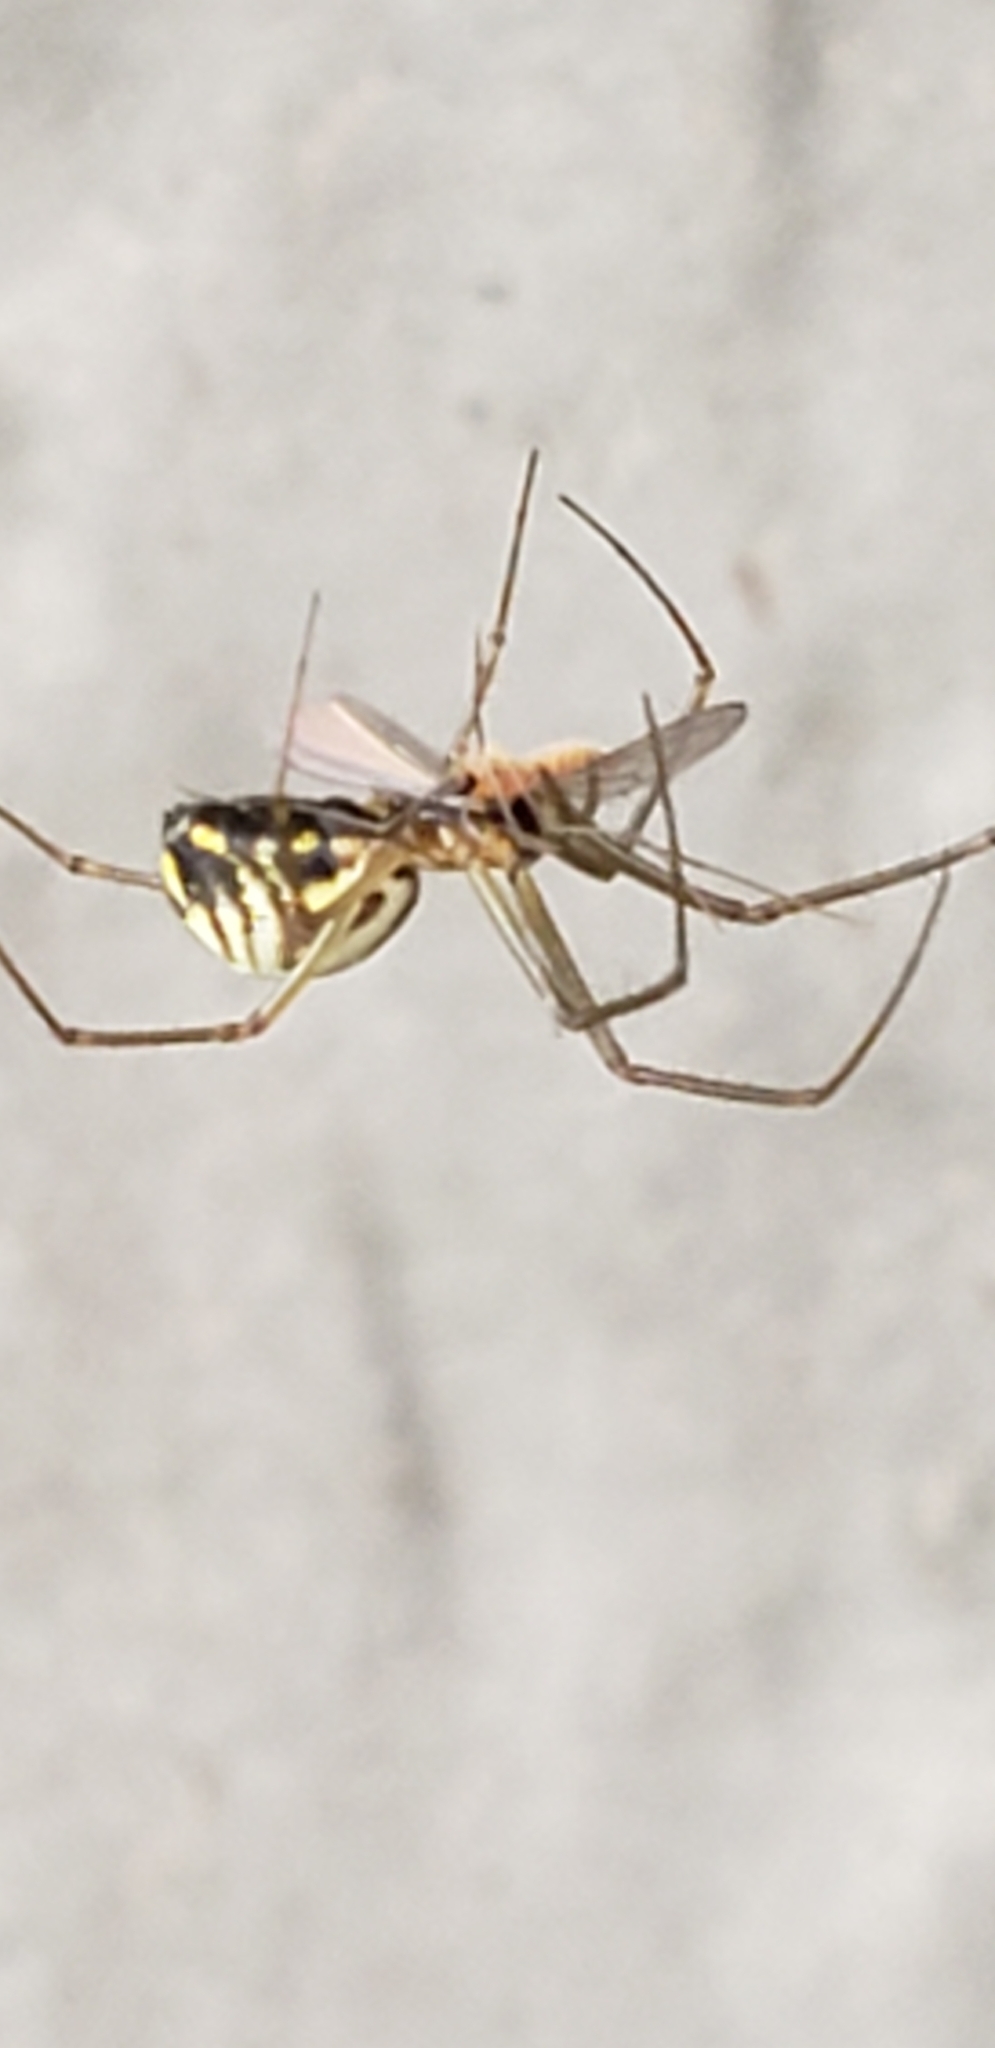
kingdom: Animalia
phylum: Arthropoda
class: Arachnida
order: Araneae
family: Linyphiidae
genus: Neriene
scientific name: Neriene radiata
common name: Filmy dome spider
